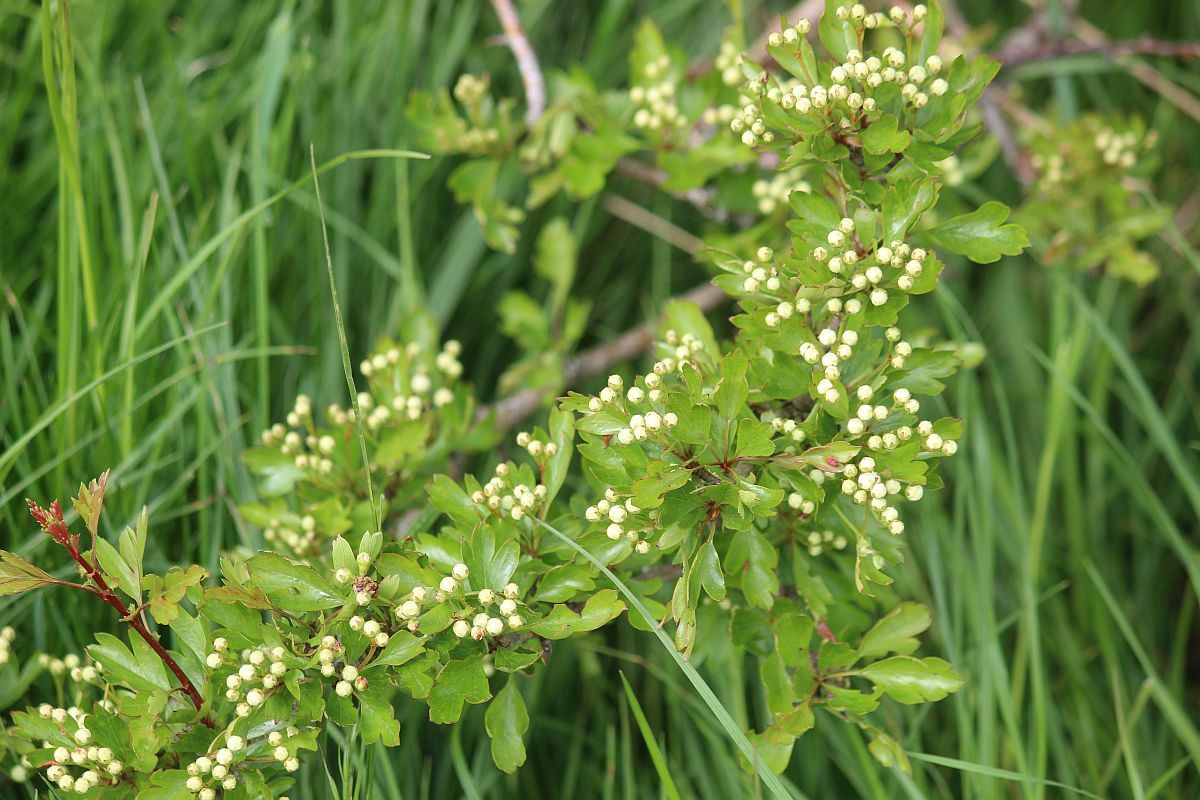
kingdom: Plantae
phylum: Tracheophyta
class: Magnoliopsida
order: Rosales
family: Rosaceae
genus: Crataegus
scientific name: Crataegus monogyna
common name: Hawthorn
